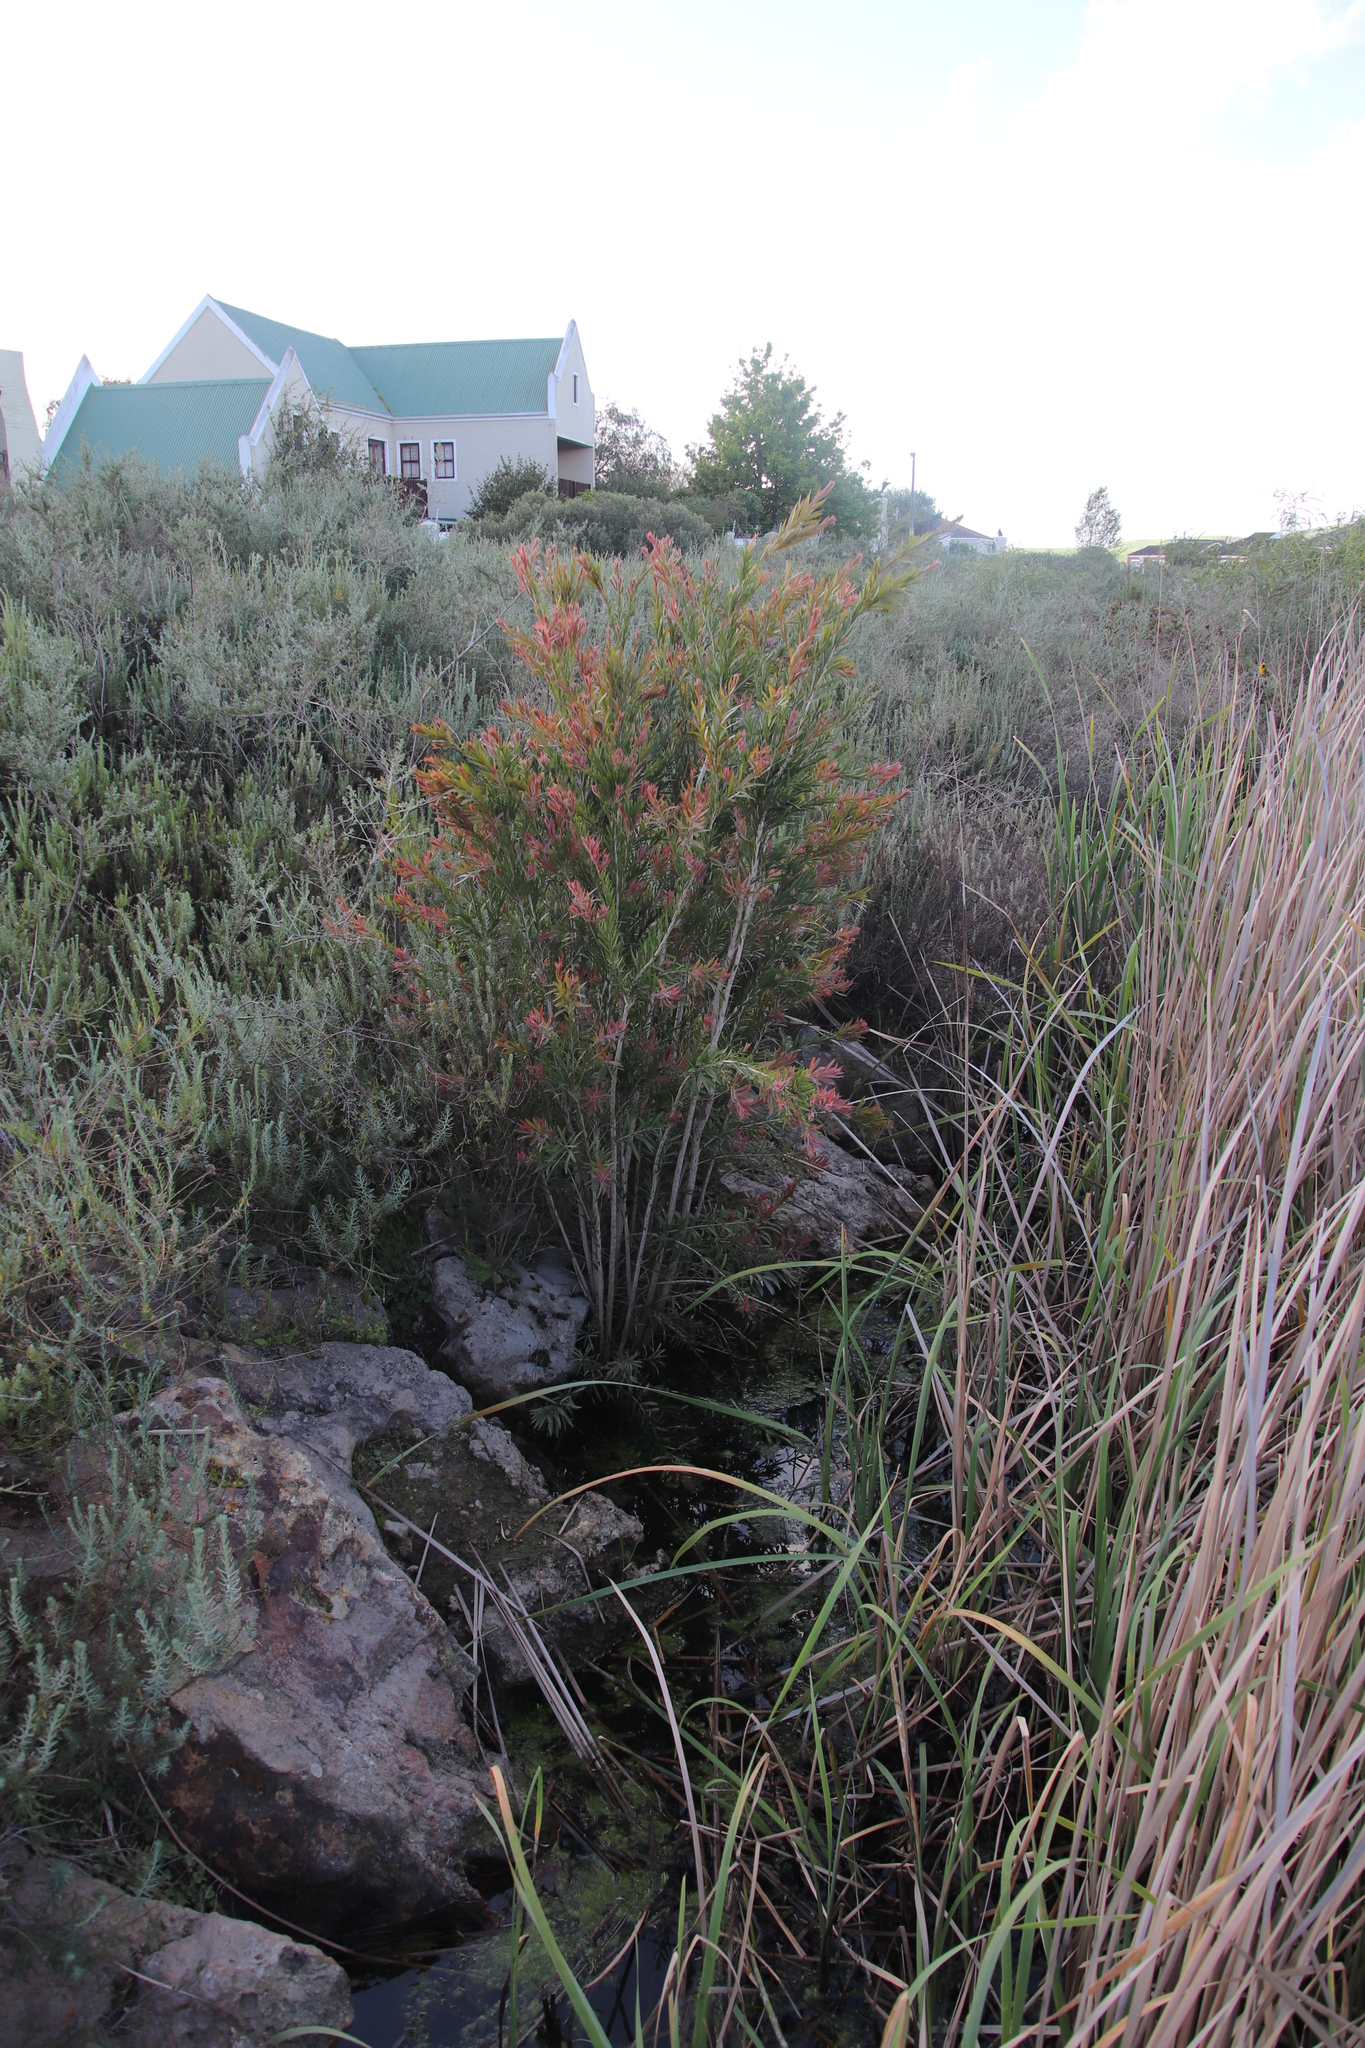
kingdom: Plantae
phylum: Tracheophyta
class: Magnoliopsida
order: Myrtales
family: Myrtaceae
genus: Callistemon
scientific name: Callistemon viminalis
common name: Drooping bottlebrush
